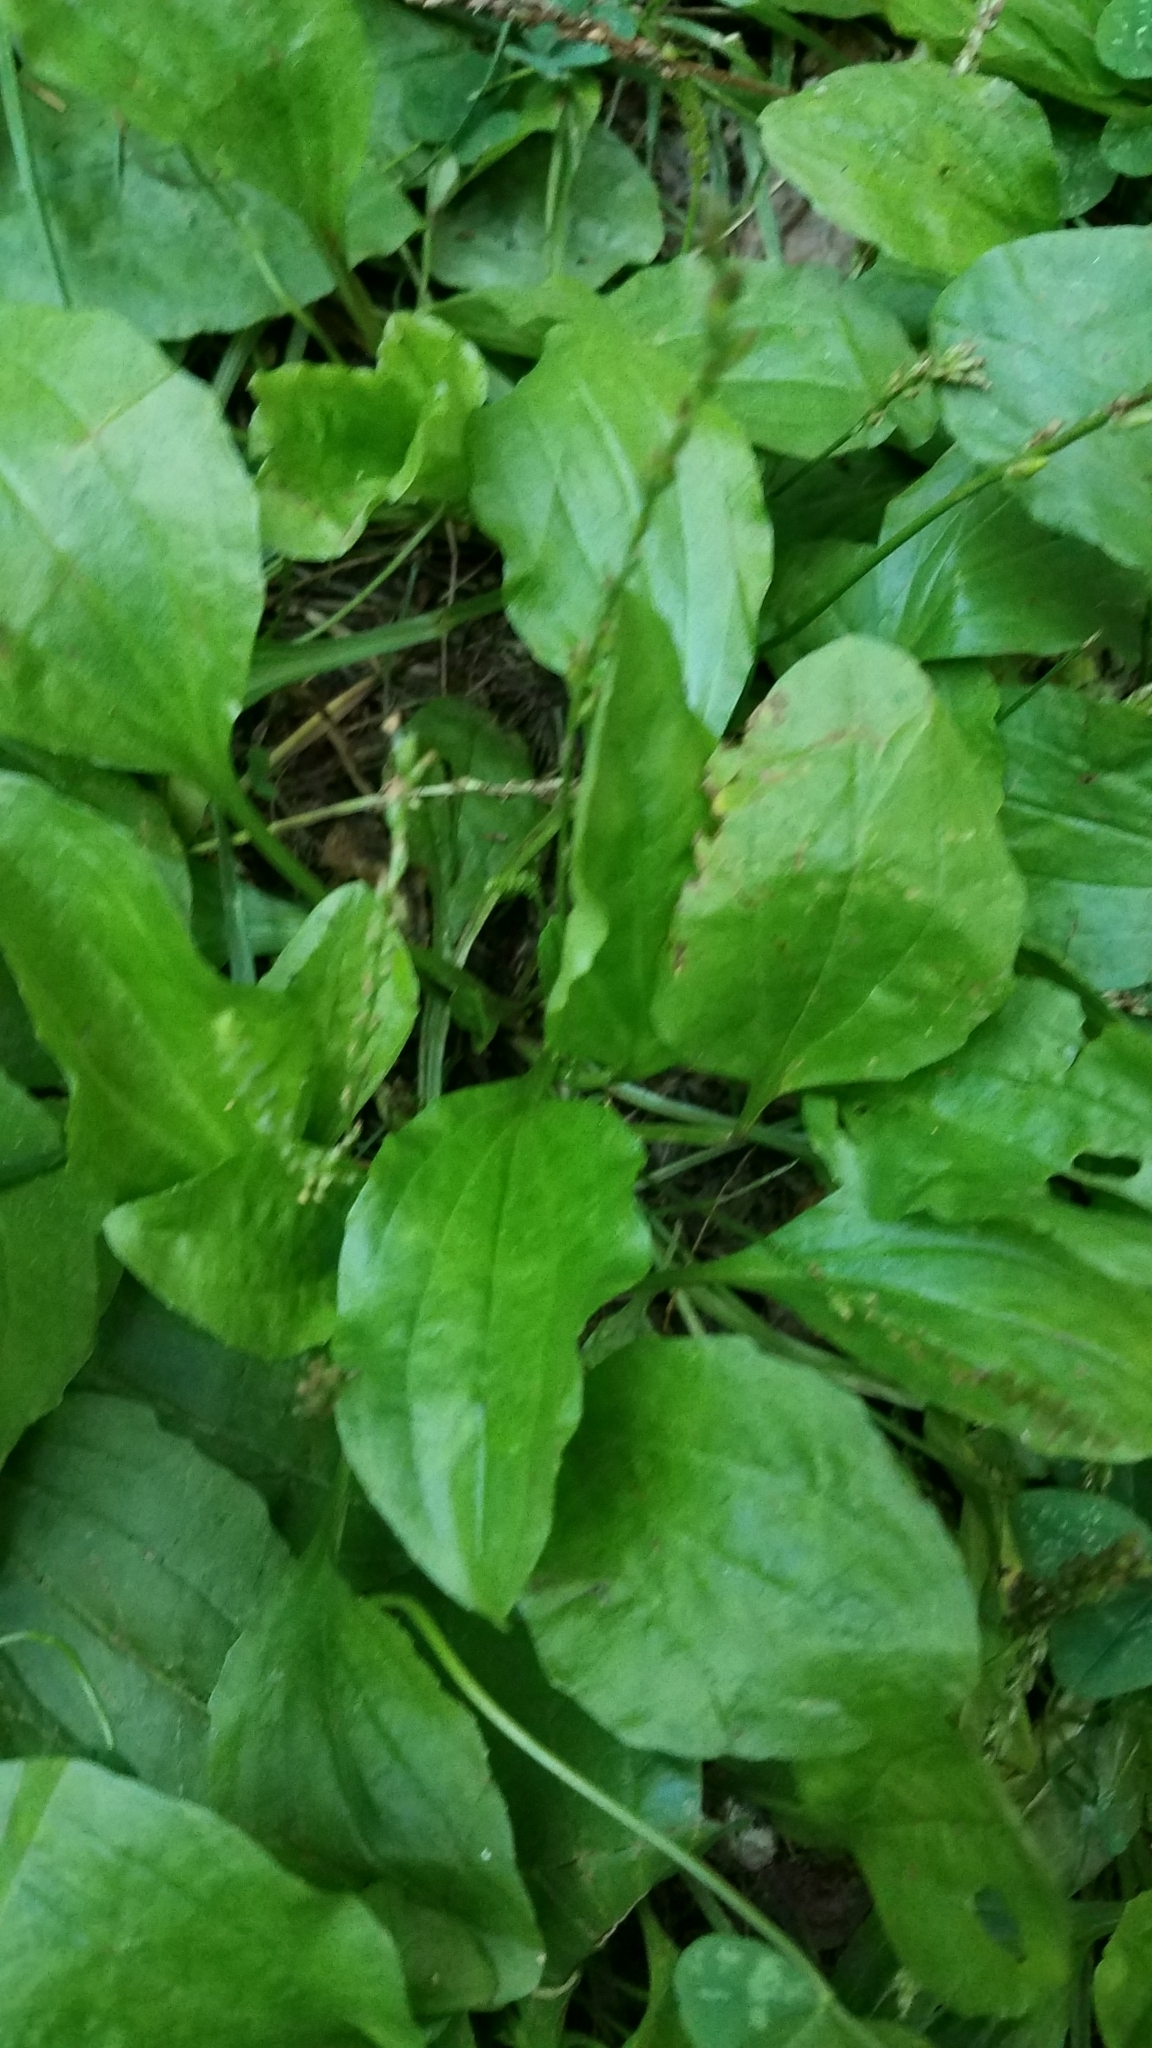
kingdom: Plantae
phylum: Tracheophyta
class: Magnoliopsida
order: Lamiales
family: Plantaginaceae
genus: Plantago
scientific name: Plantago major
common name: Common plantain
